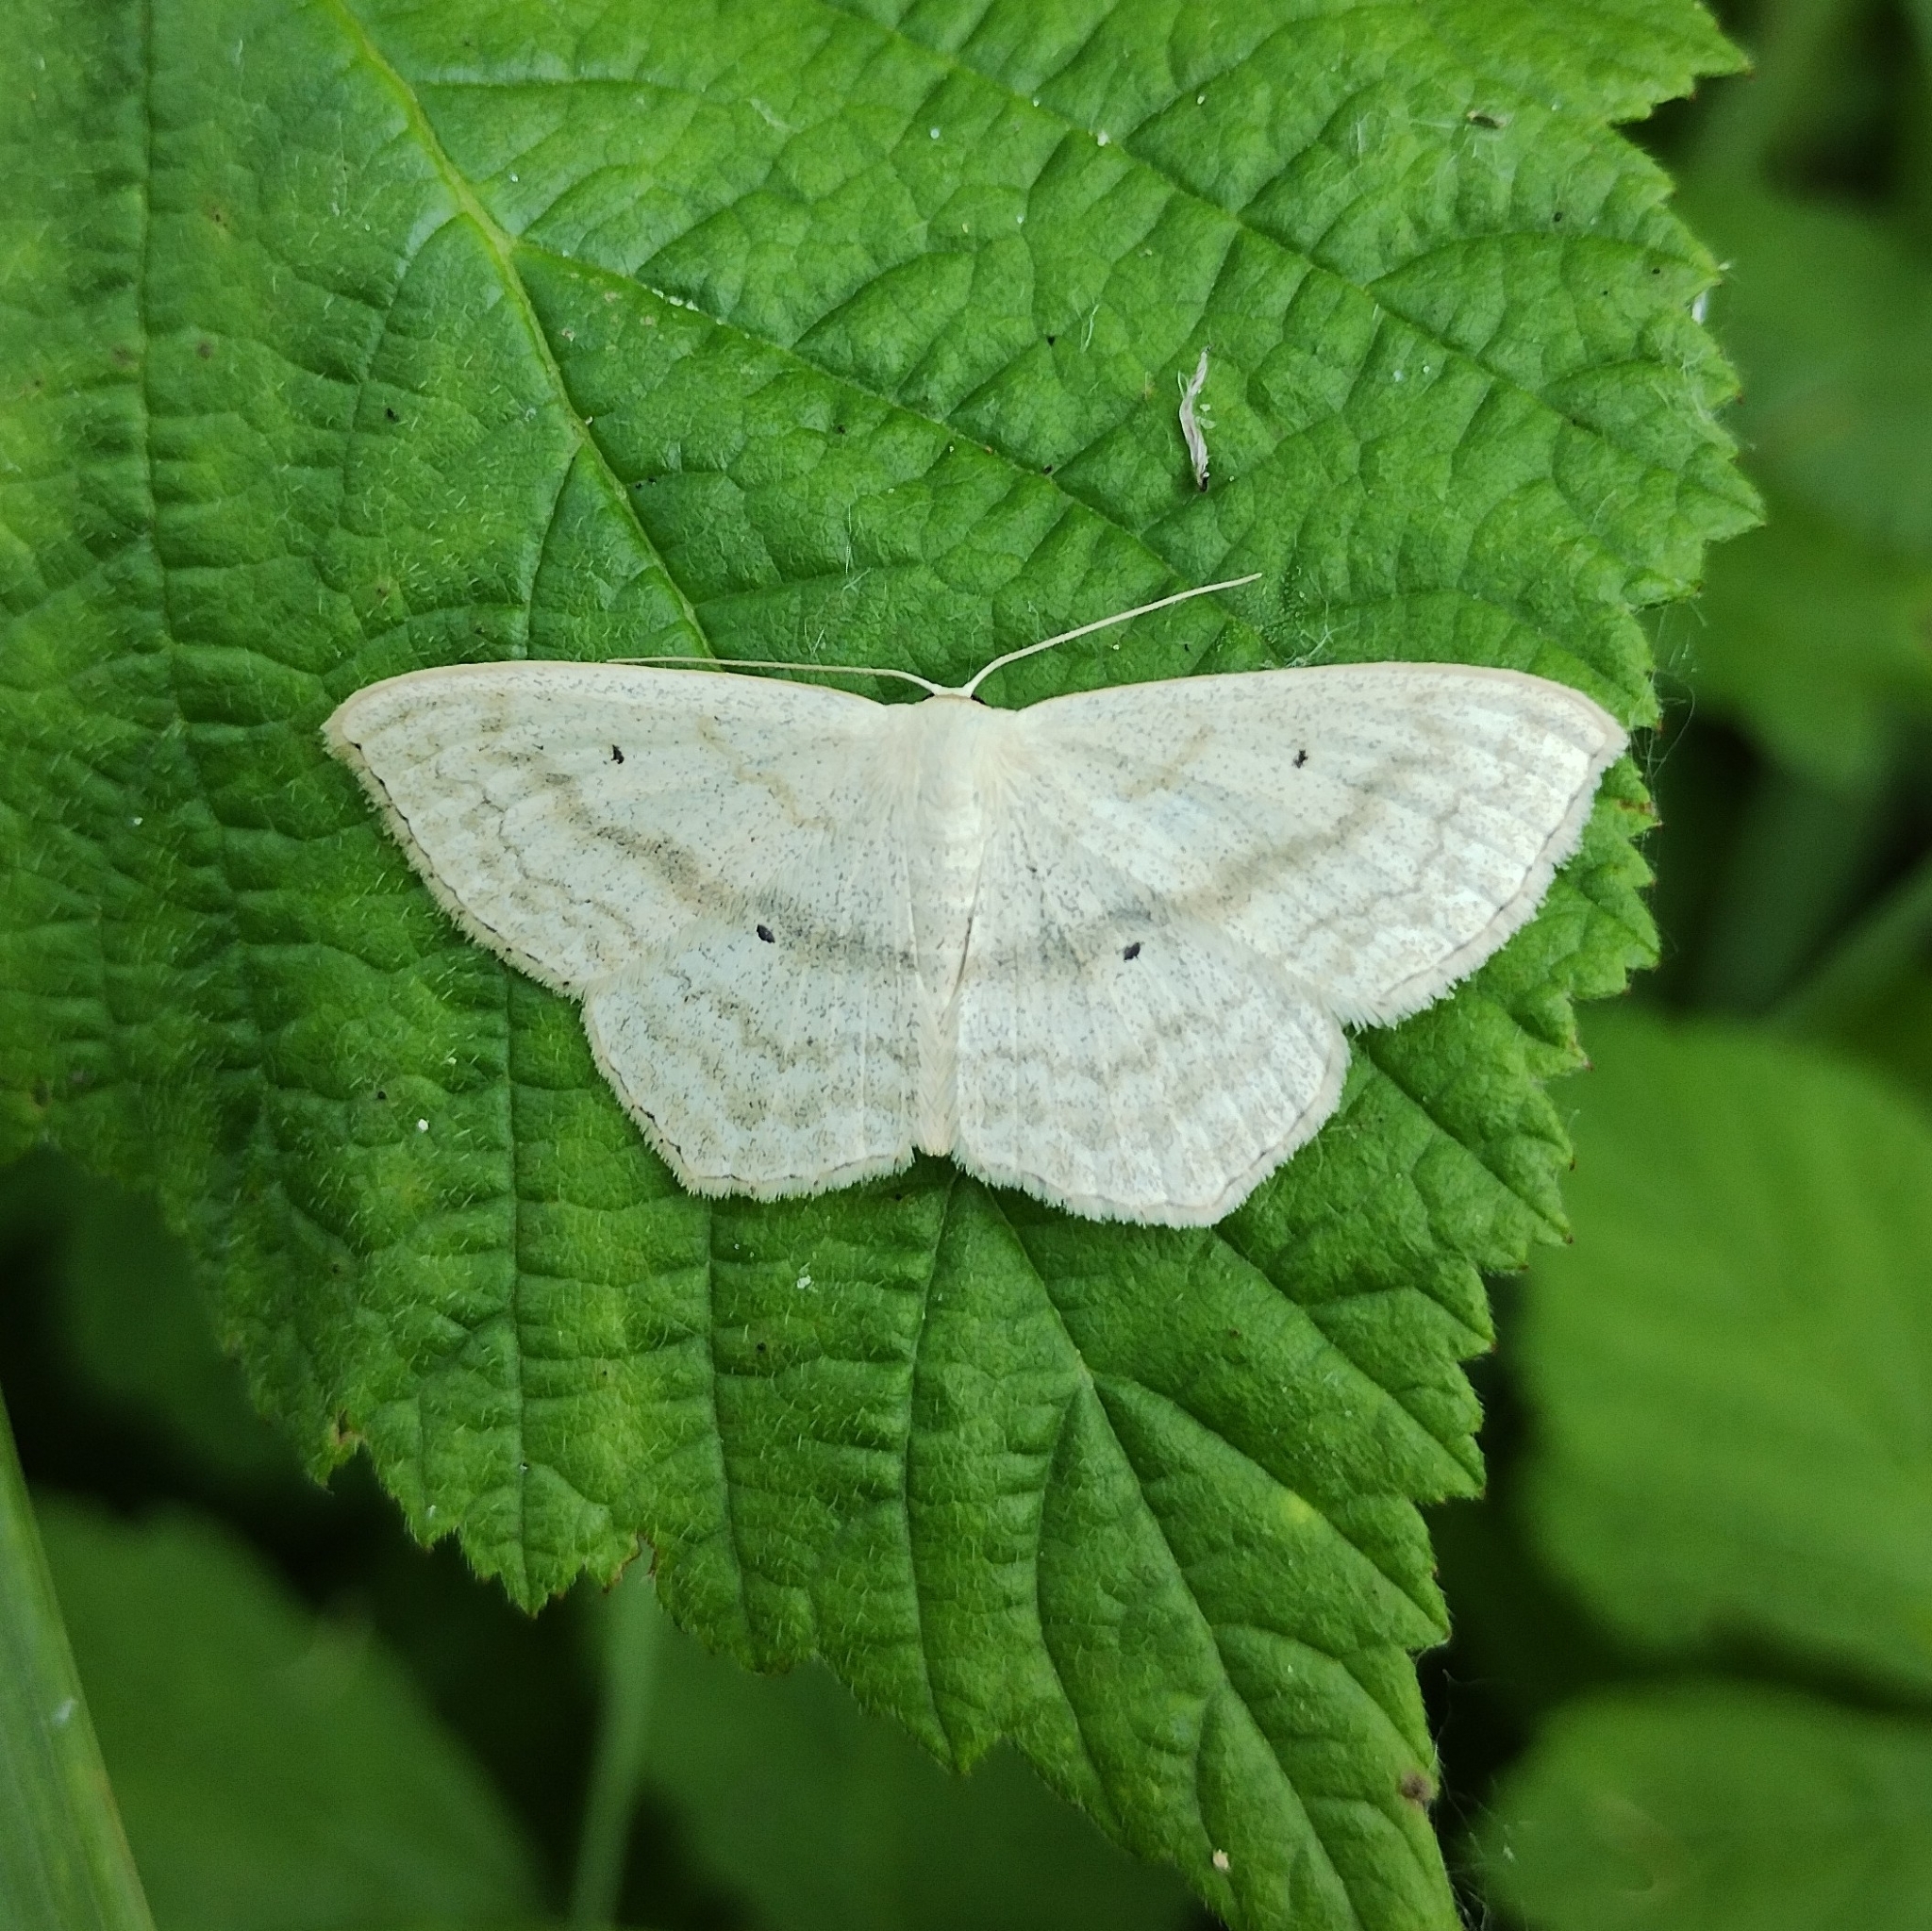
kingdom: Animalia
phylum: Arthropoda
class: Insecta
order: Lepidoptera
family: Geometridae
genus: Scopula
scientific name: Scopula nigropunctata
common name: Sub-angled wave
